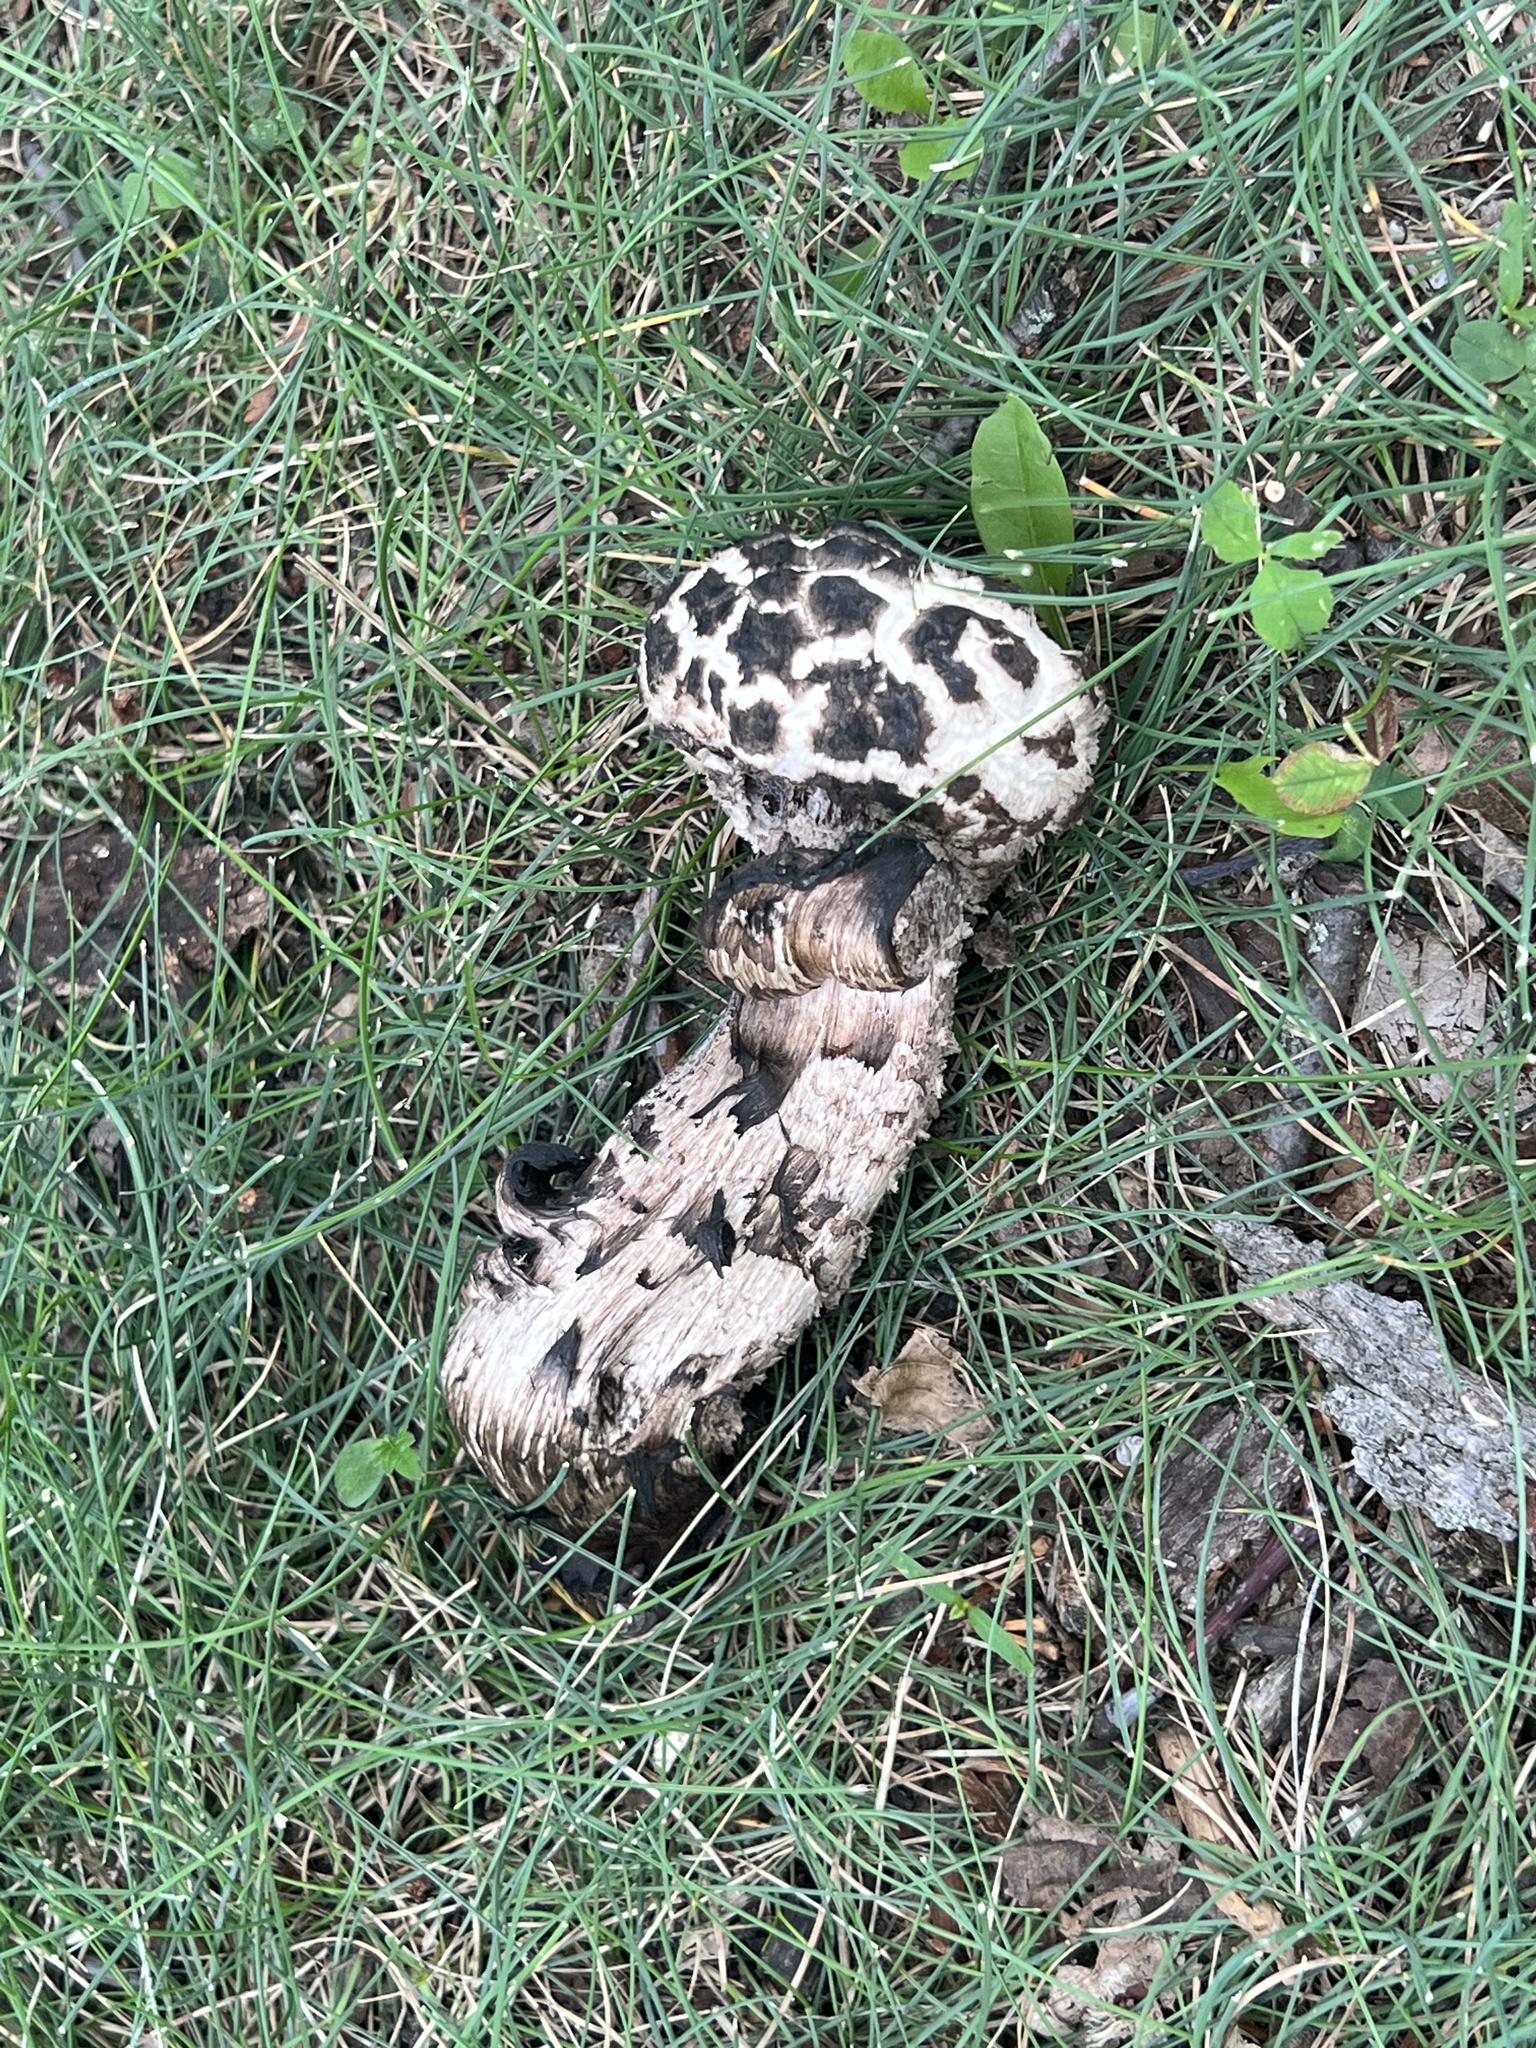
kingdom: Fungi
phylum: Basidiomycota
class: Agaricomycetes
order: Boletales
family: Boletaceae
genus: Strobilomyces
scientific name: Strobilomyces strobilaceus
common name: Old man of the woods
